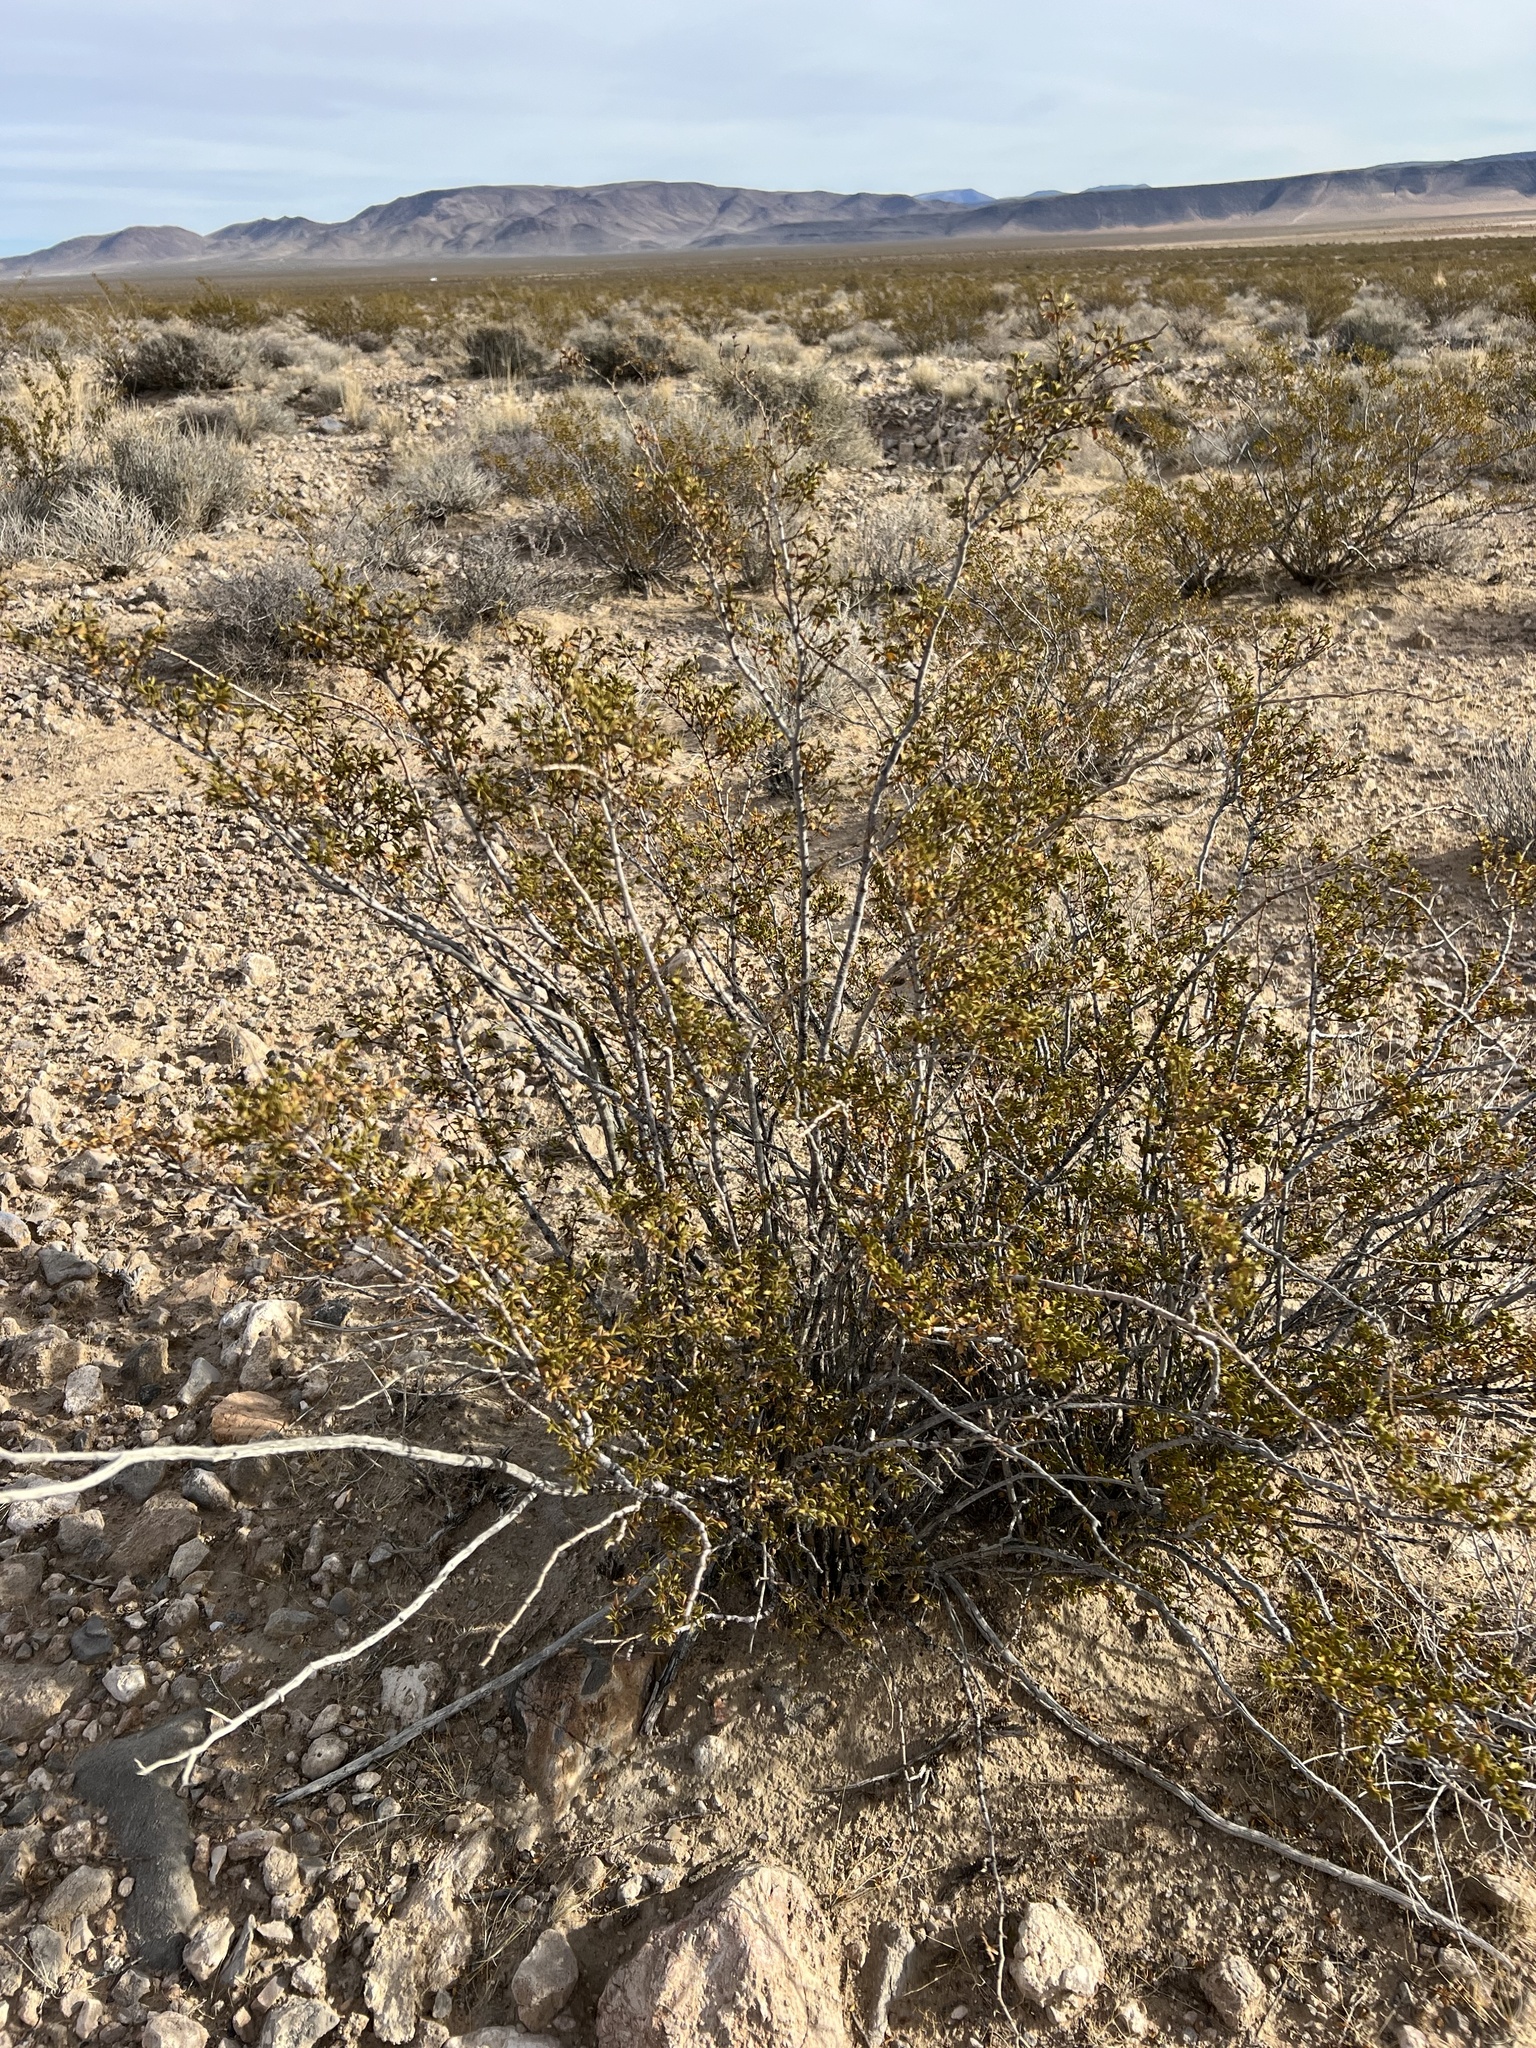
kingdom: Plantae
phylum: Tracheophyta
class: Magnoliopsida
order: Zygophyllales
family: Zygophyllaceae
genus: Larrea
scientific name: Larrea tridentata
